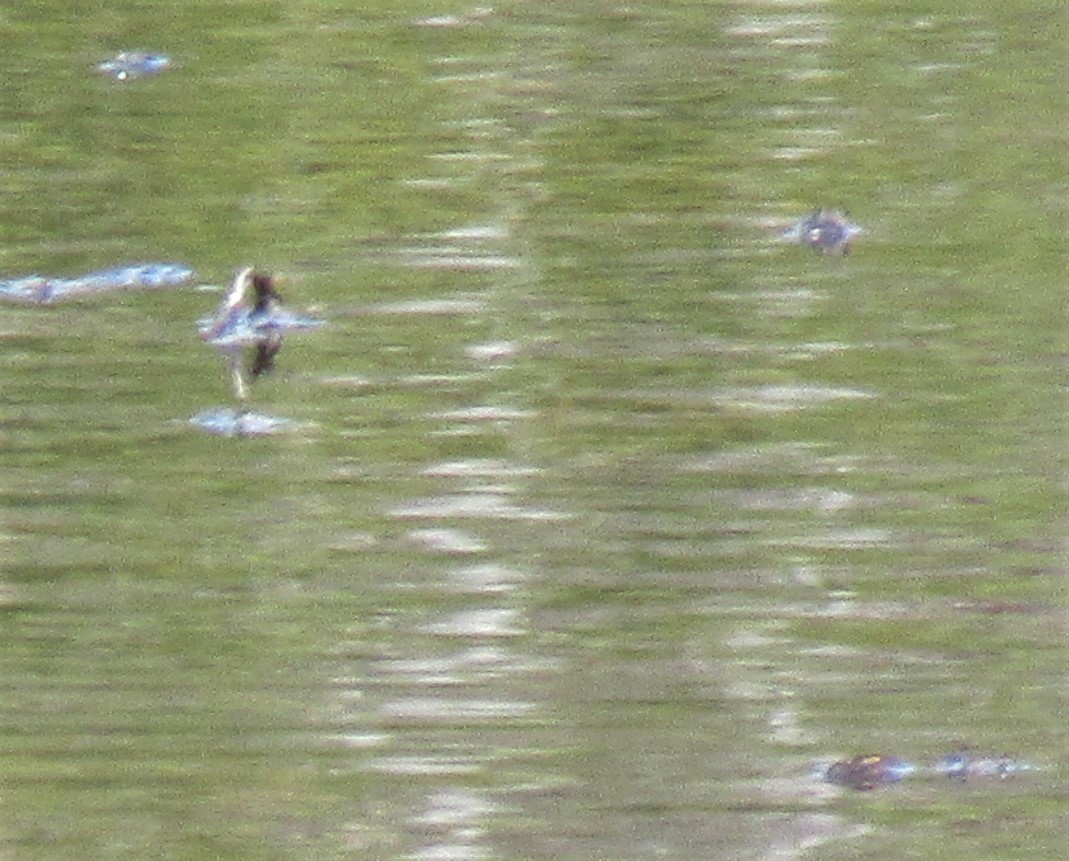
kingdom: Animalia
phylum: Chordata
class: Amphibia
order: Anura
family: Ranidae
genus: Lithobates
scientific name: Lithobates sylvaticus
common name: Wood frog
